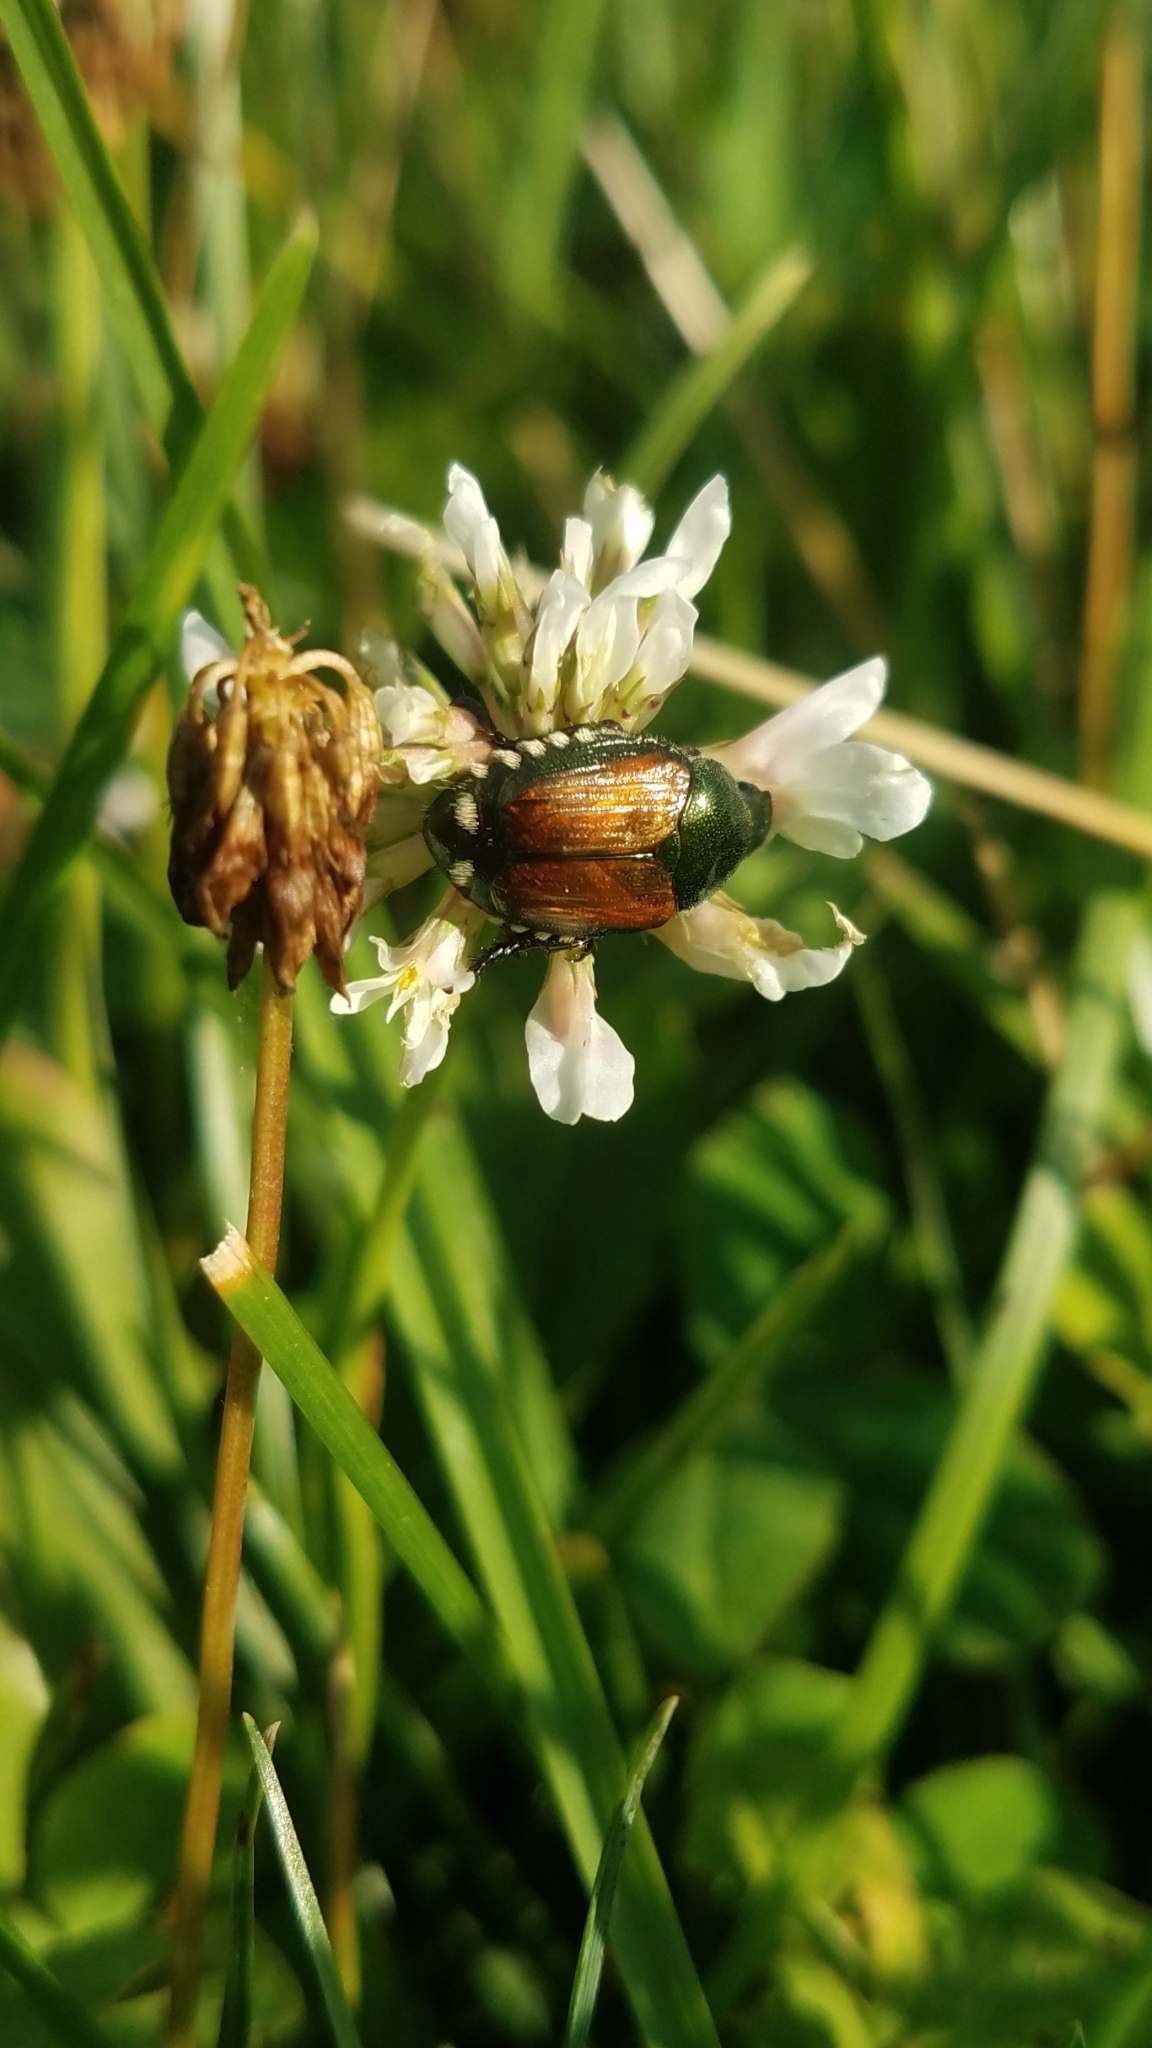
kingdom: Animalia
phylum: Arthropoda
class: Insecta
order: Coleoptera
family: Scarabaeidae
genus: Popillia
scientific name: Popillia japonica
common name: Japanese beetle
